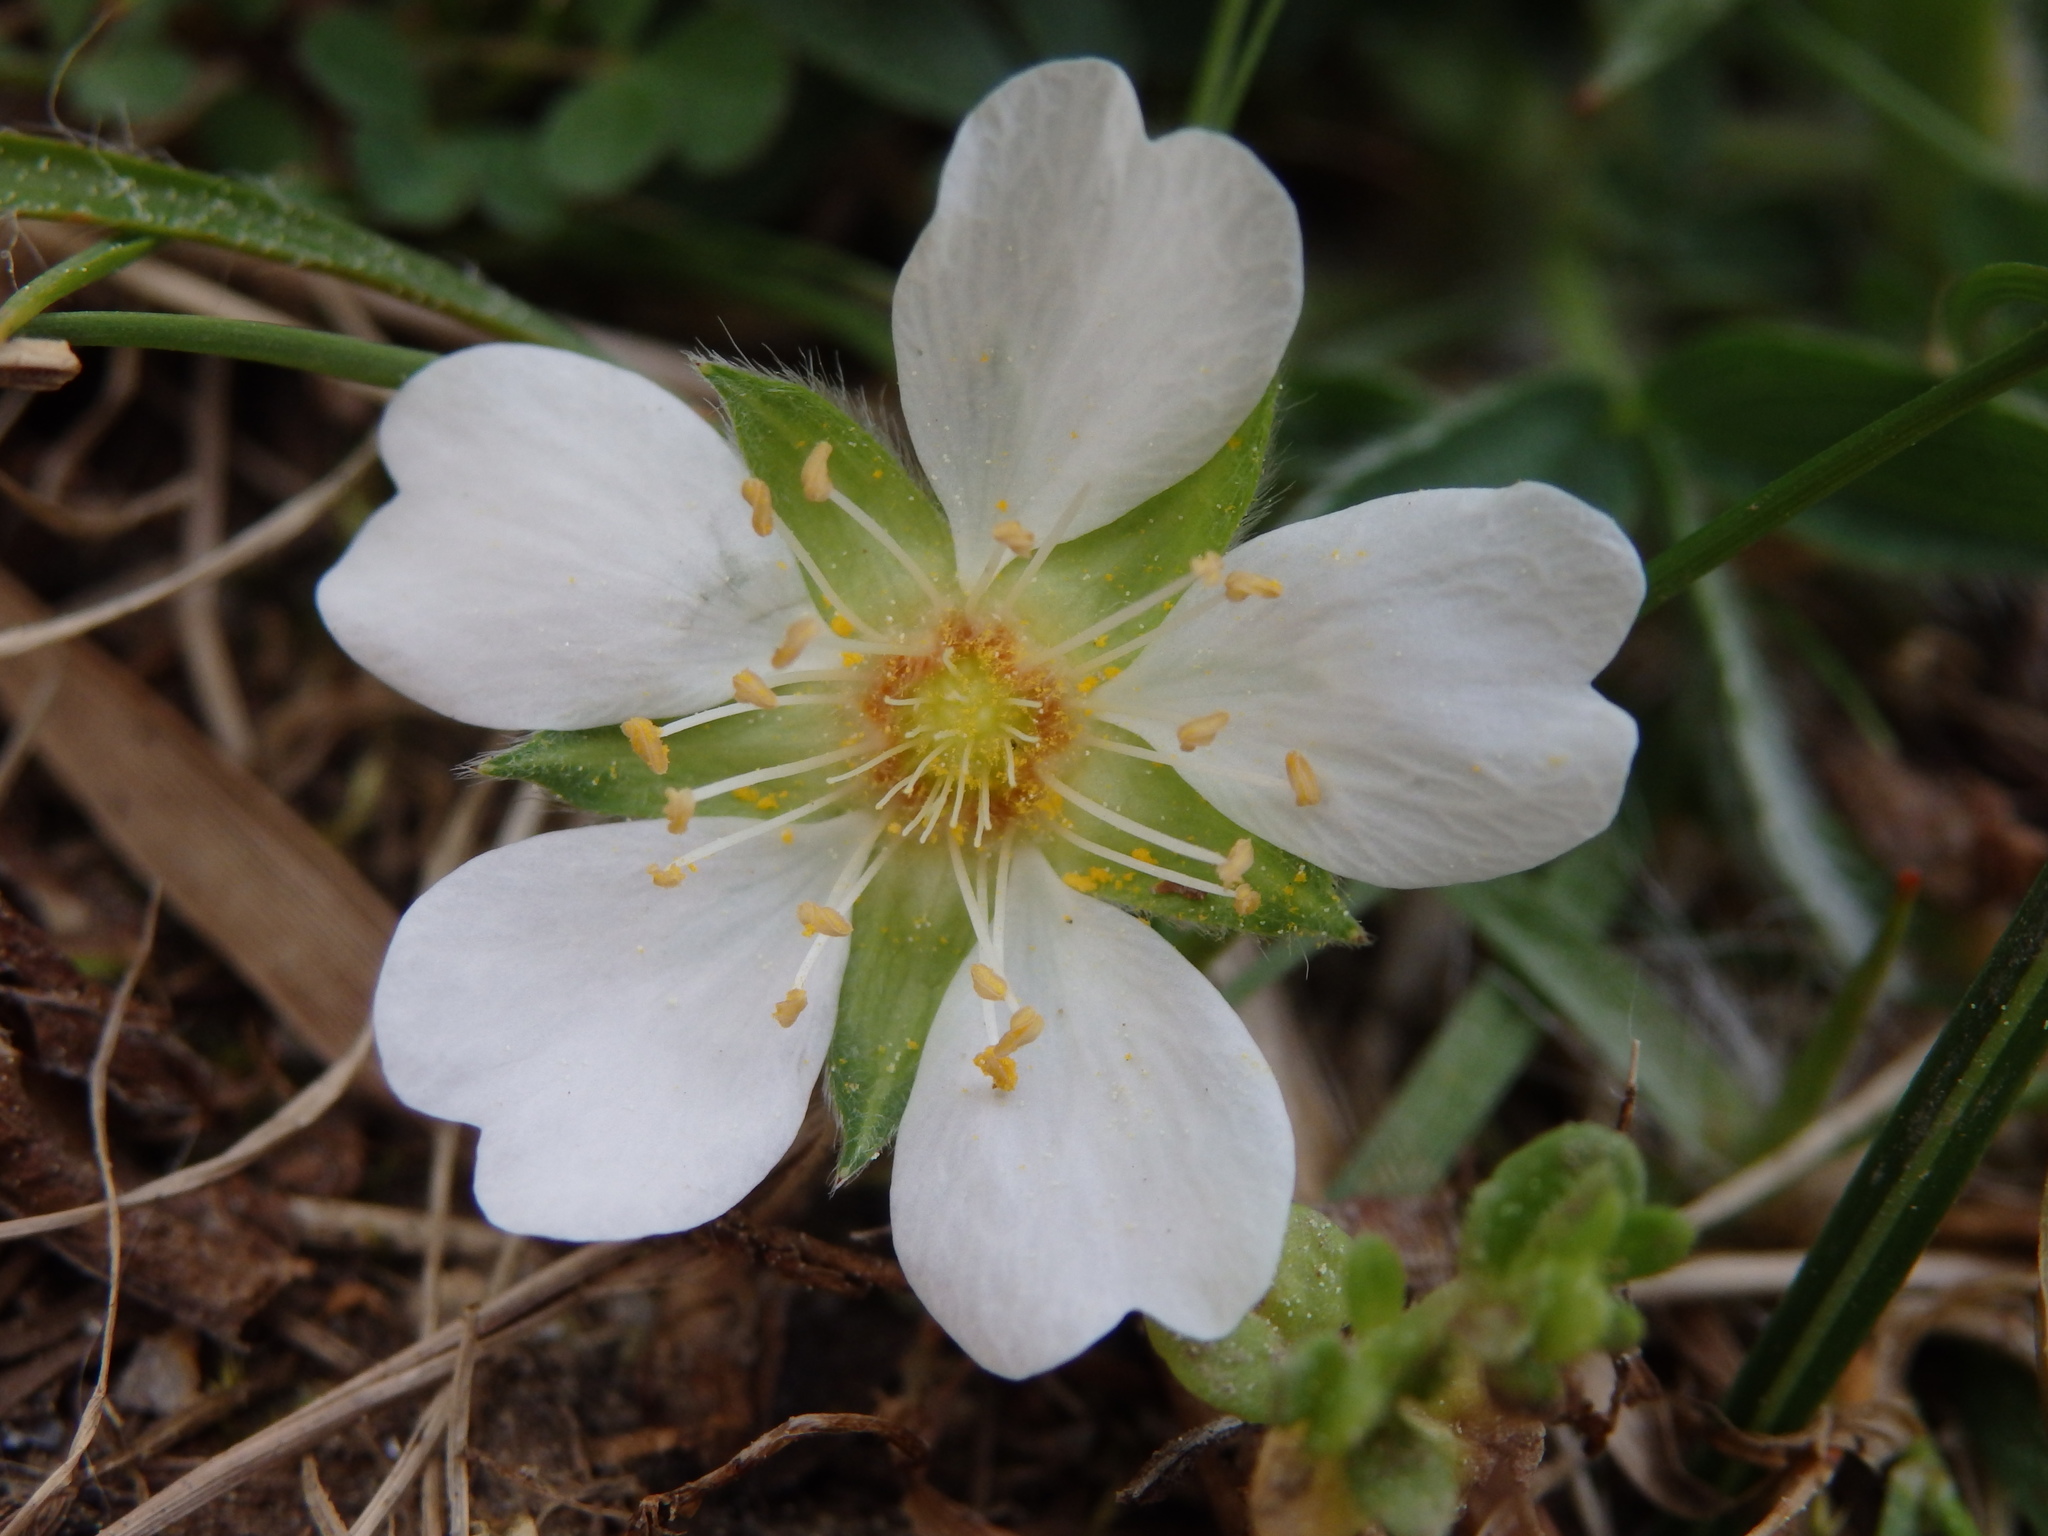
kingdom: Plantae
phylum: Tracheophyta
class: Magnoliopsida
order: Rosales
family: Rosaceae
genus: Potentilla
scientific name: Potentilla montana
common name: Mountain cinquefoil
